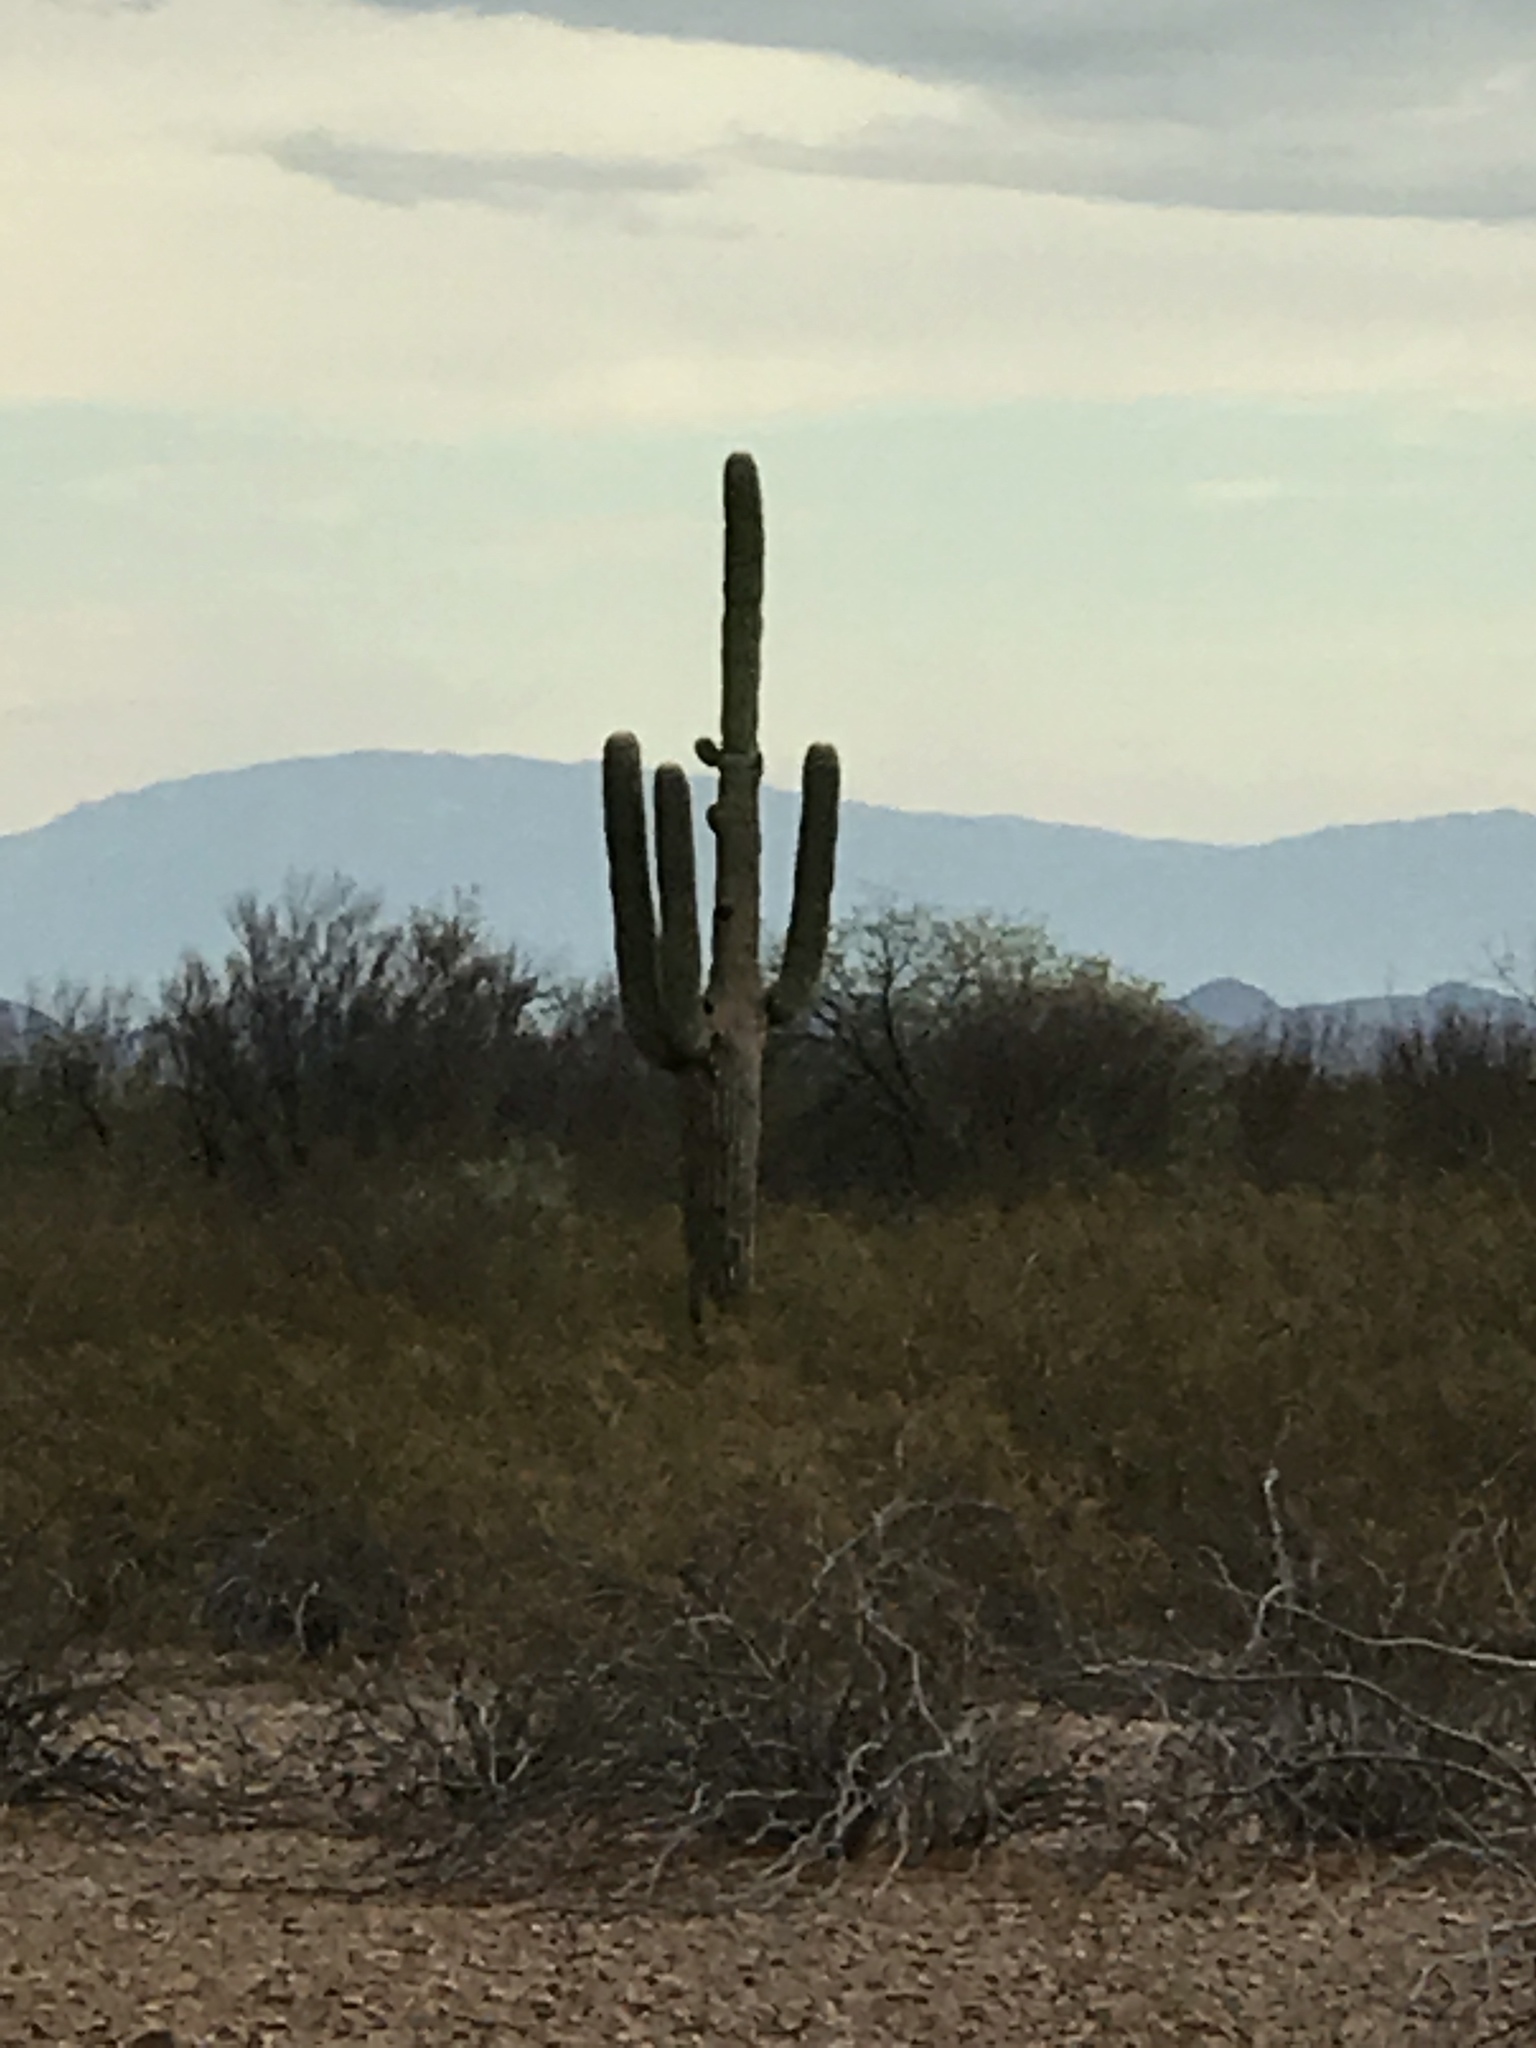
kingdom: Plantae
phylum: Tracheophyta
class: Magnoliopsida
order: Caryophyllales
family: Cactaceae
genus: Carnegiea
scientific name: Carnegiea gigantea
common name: Saguaro
